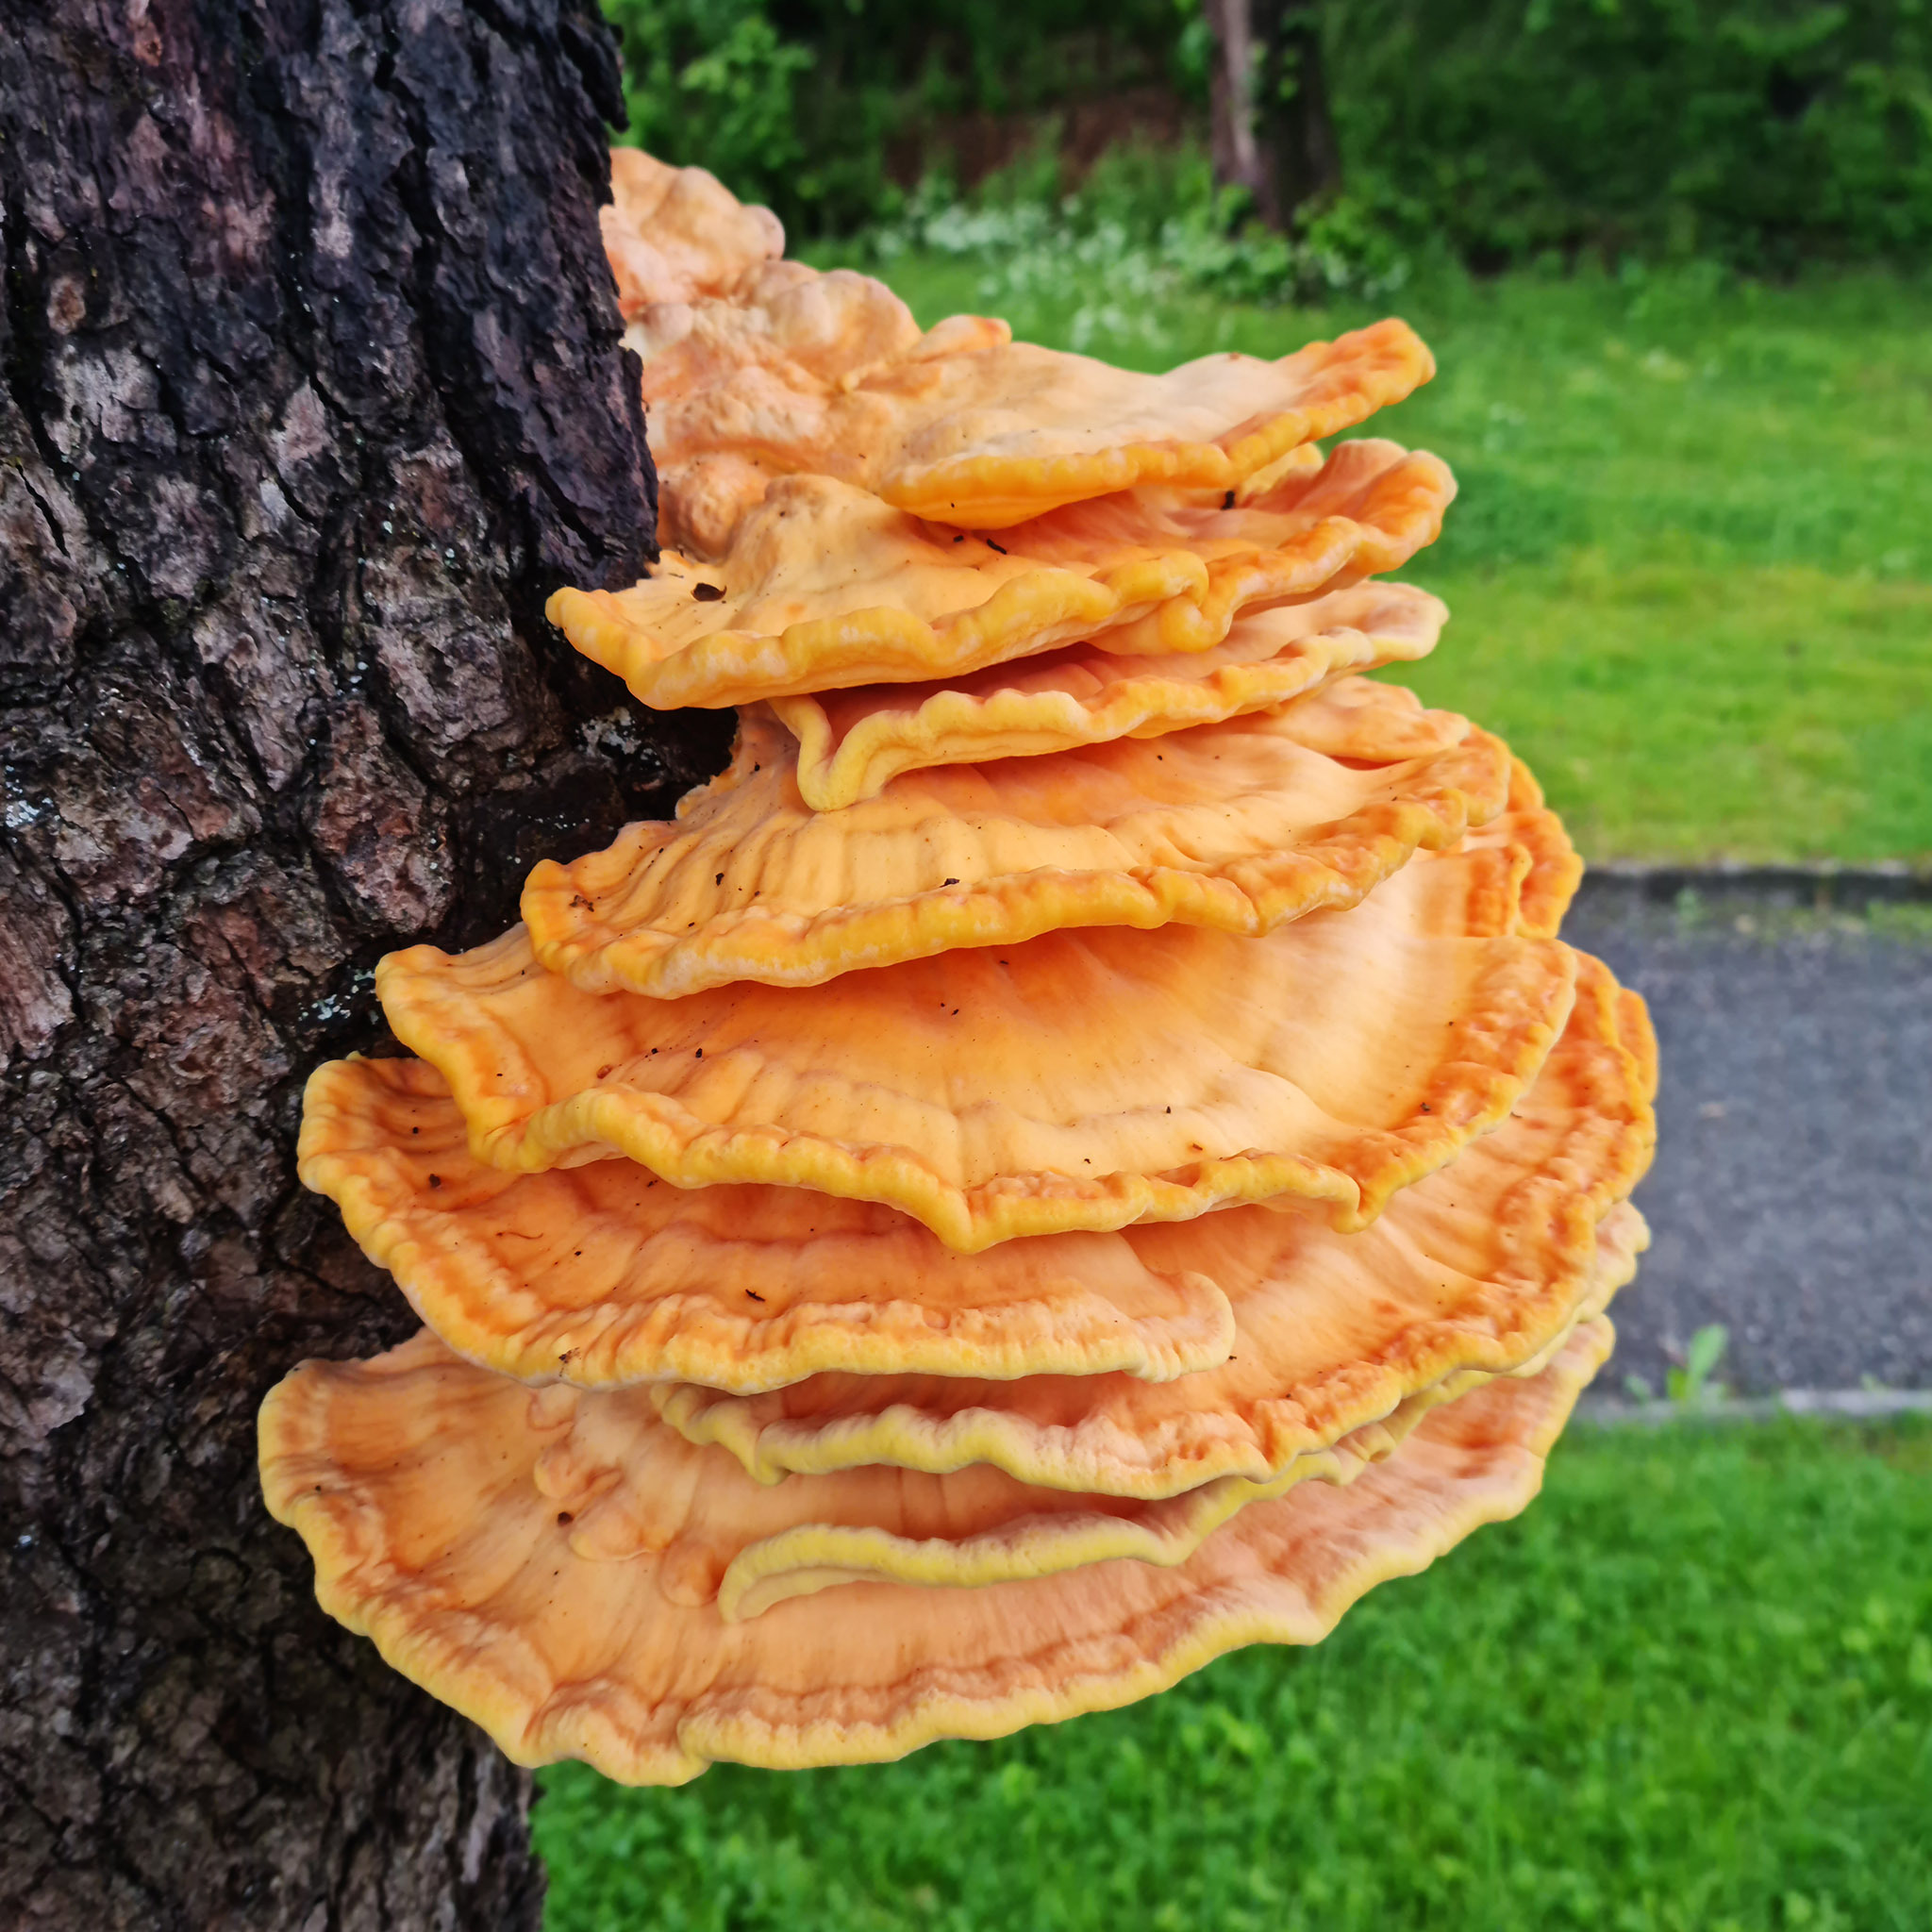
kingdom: Fungi
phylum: Basidiomycota
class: Agaricomycetes
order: Polyporales
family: Laetiporaceae
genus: Laetiporus
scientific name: Laetiporus sulphureus
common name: Chicken of the woods
